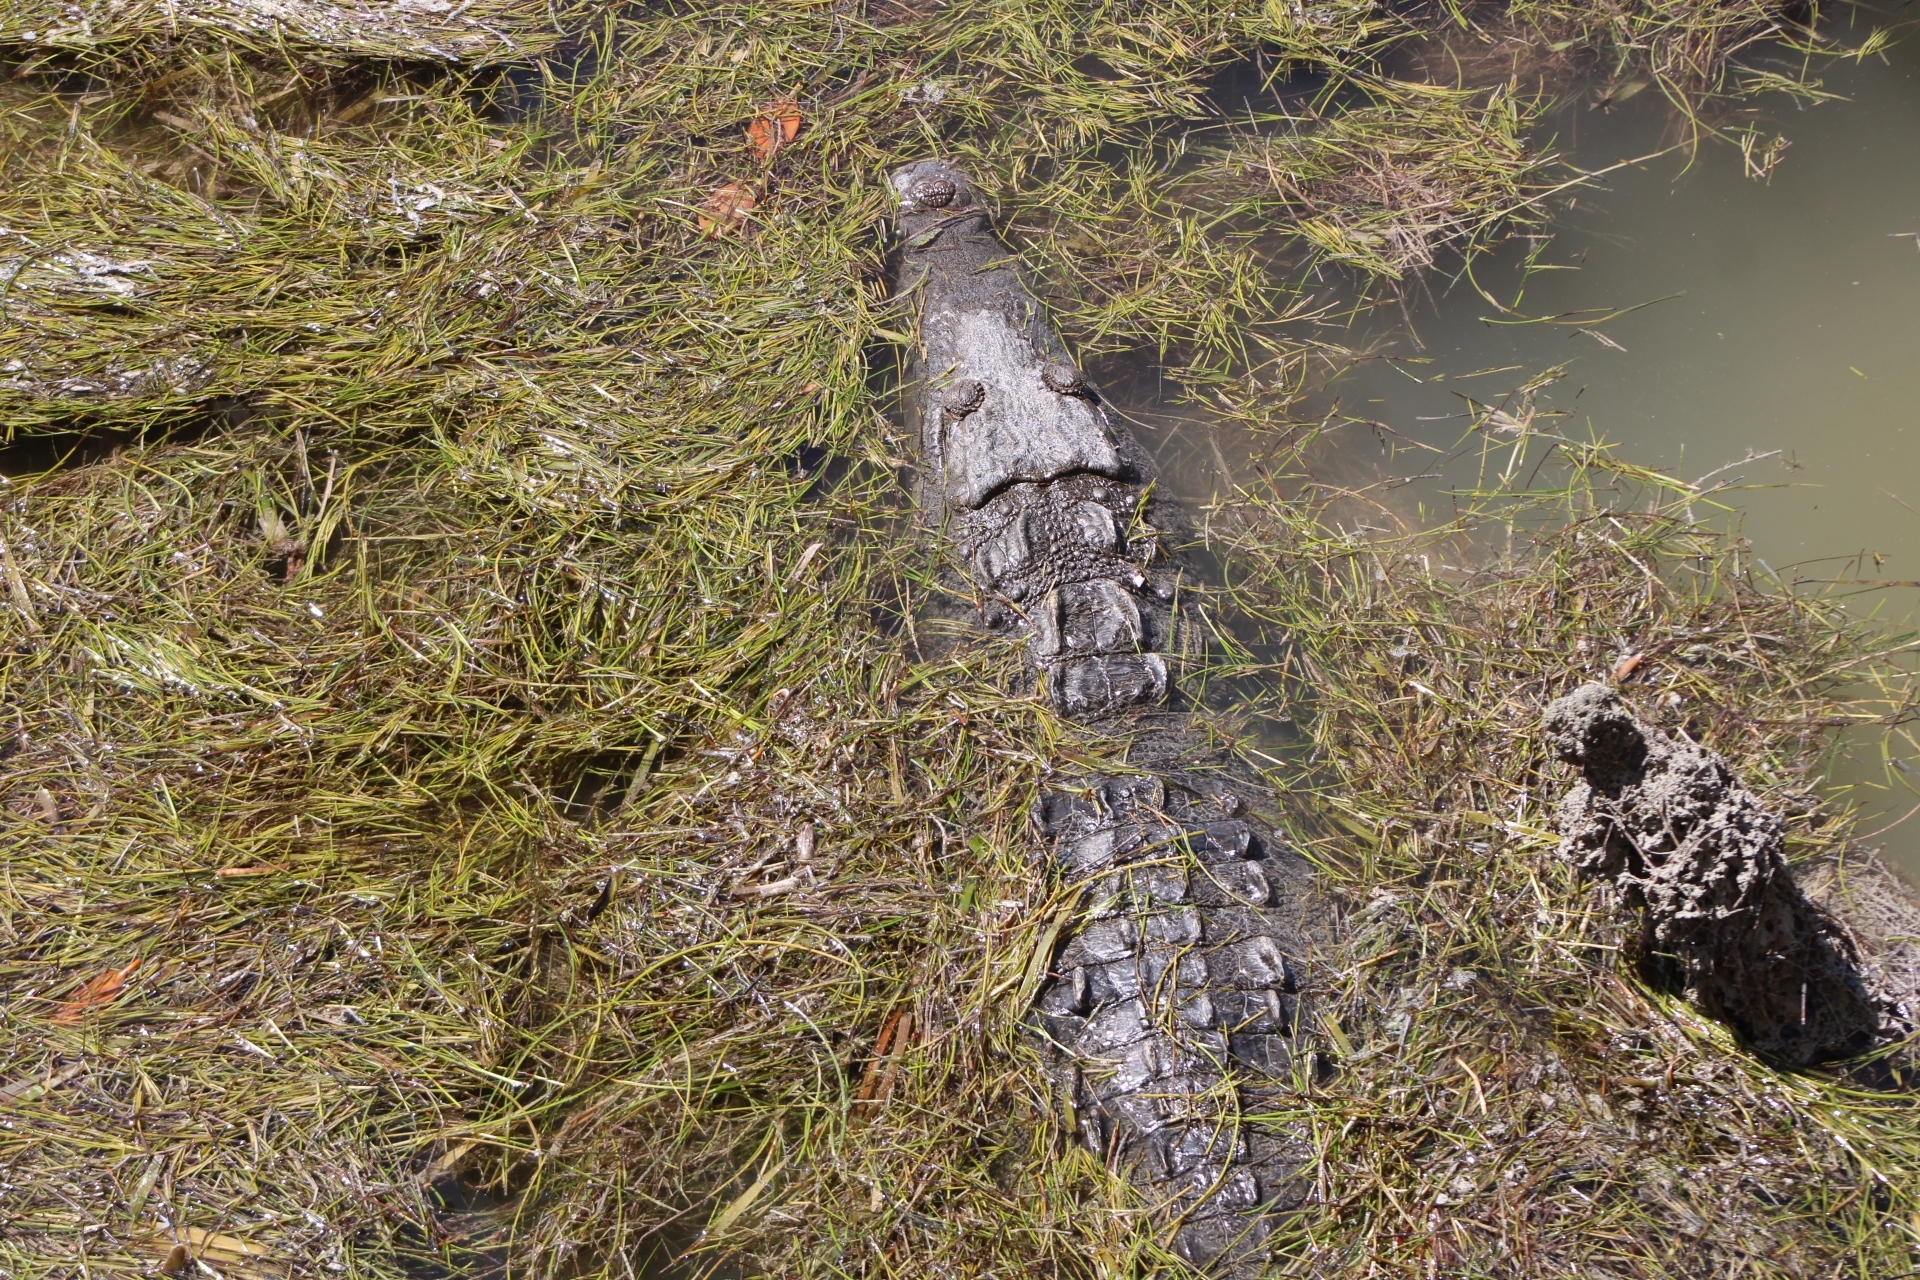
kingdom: Animalia
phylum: Chordata
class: Crocodylia
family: Crocodylidae
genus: Crocodylus
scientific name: Crocodylus acutus
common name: American crocodile
